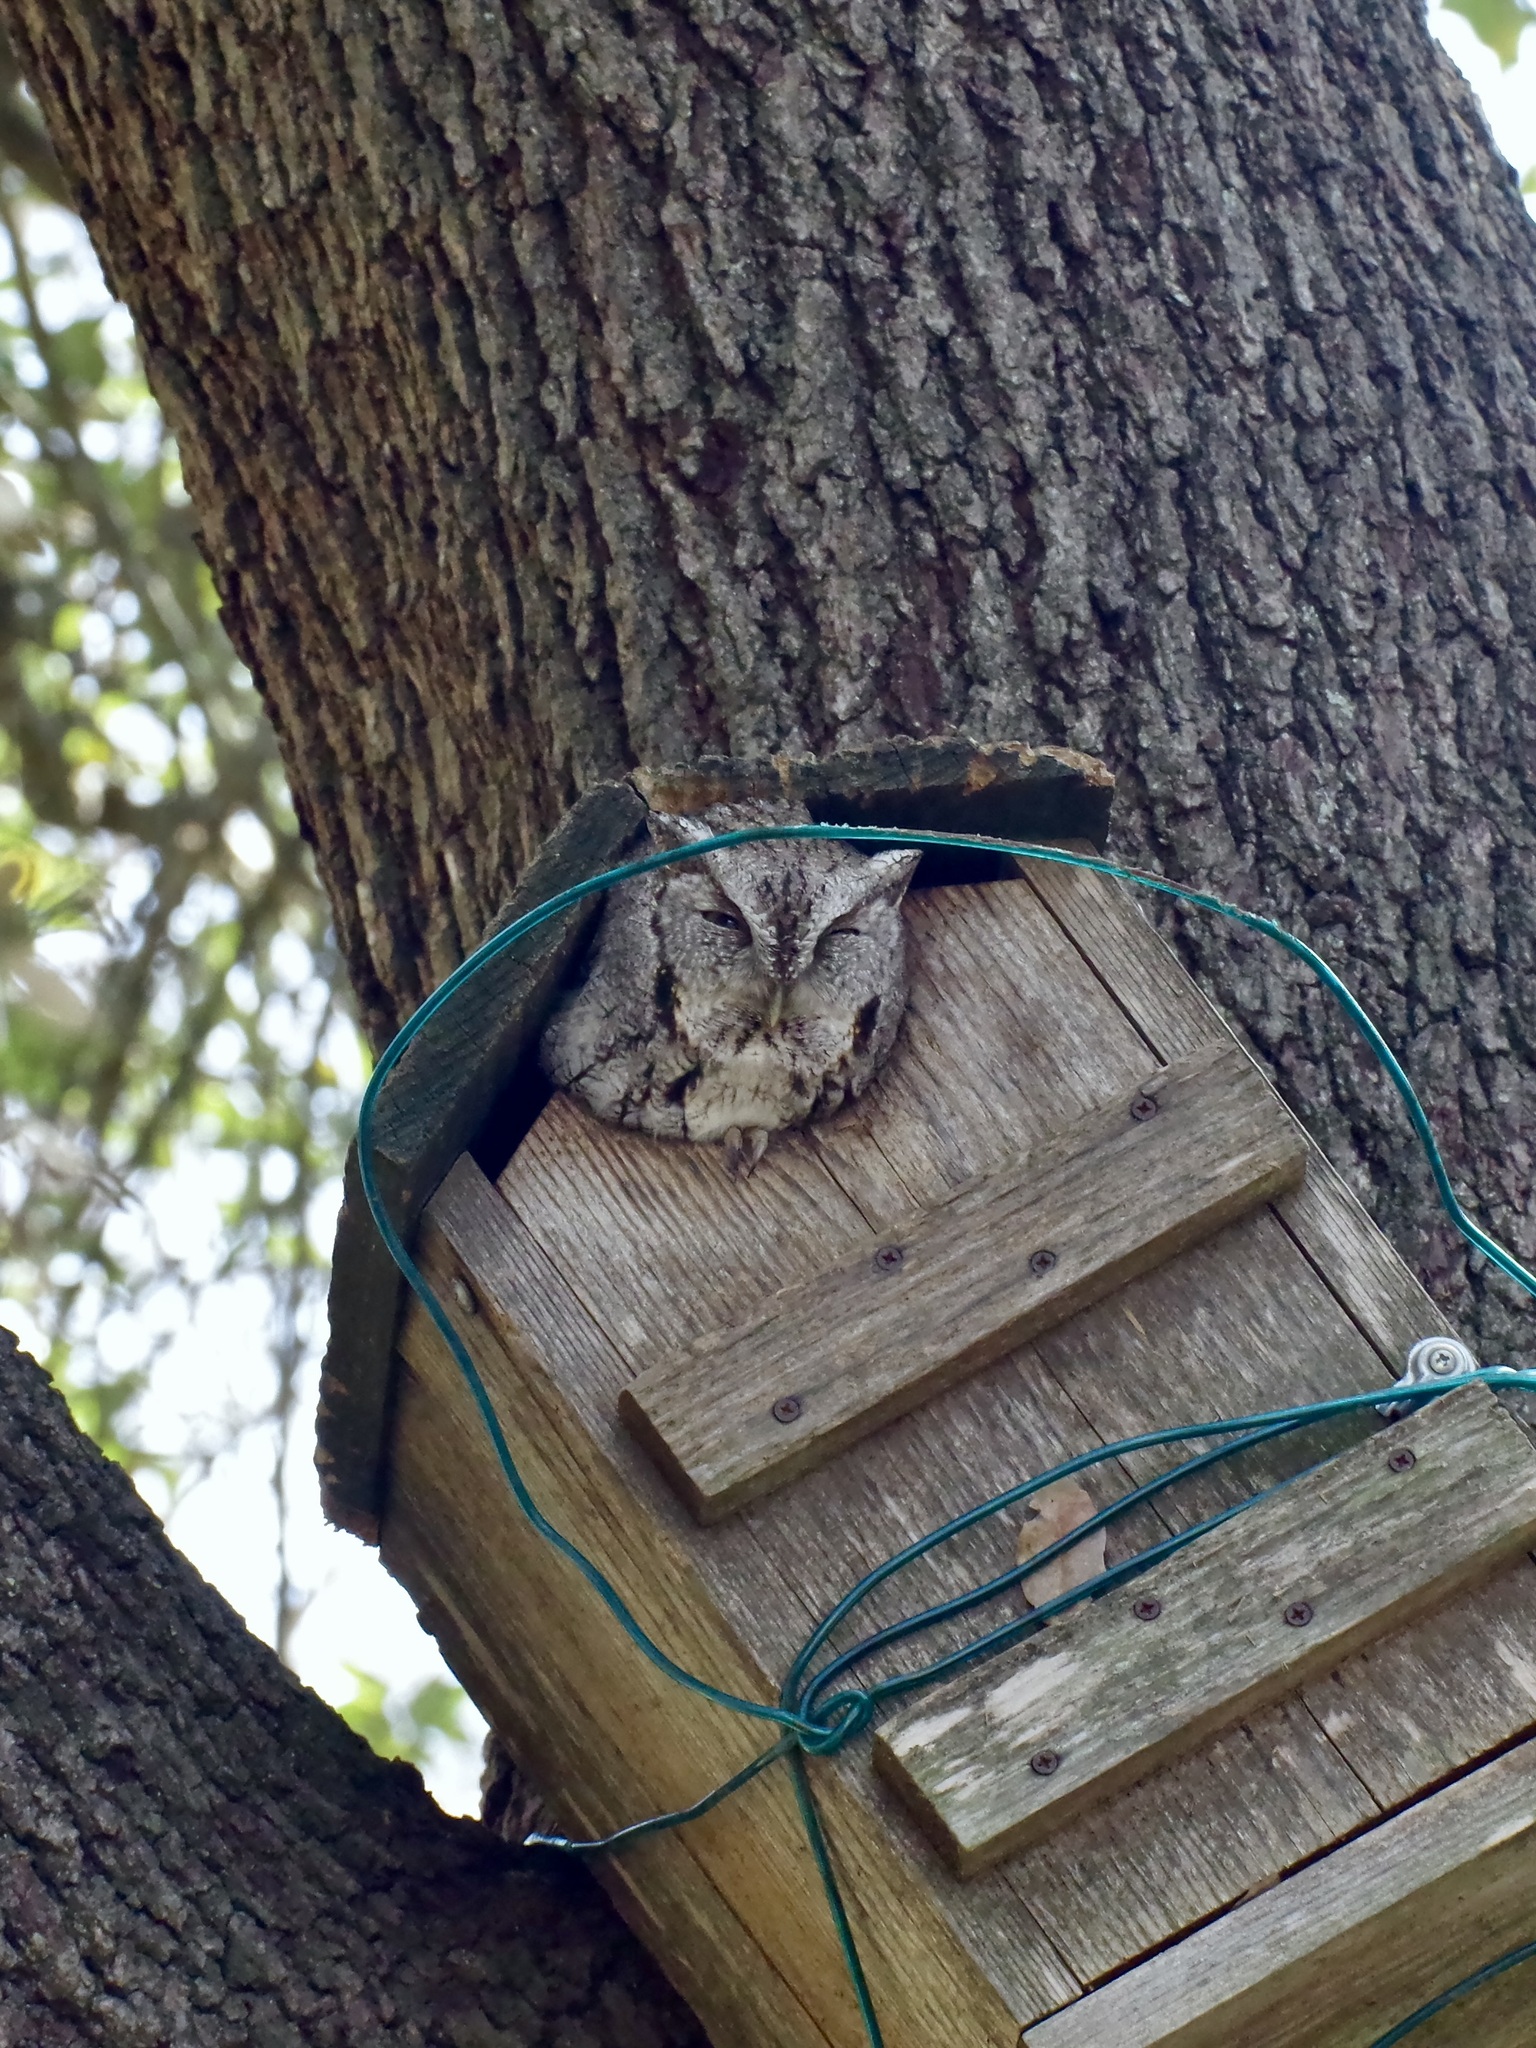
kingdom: Animalia
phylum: Chordata
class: Aves
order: Strigiformes
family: Strigidae
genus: Megascops
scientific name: Megascops asio
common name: Eastern screech-owl
